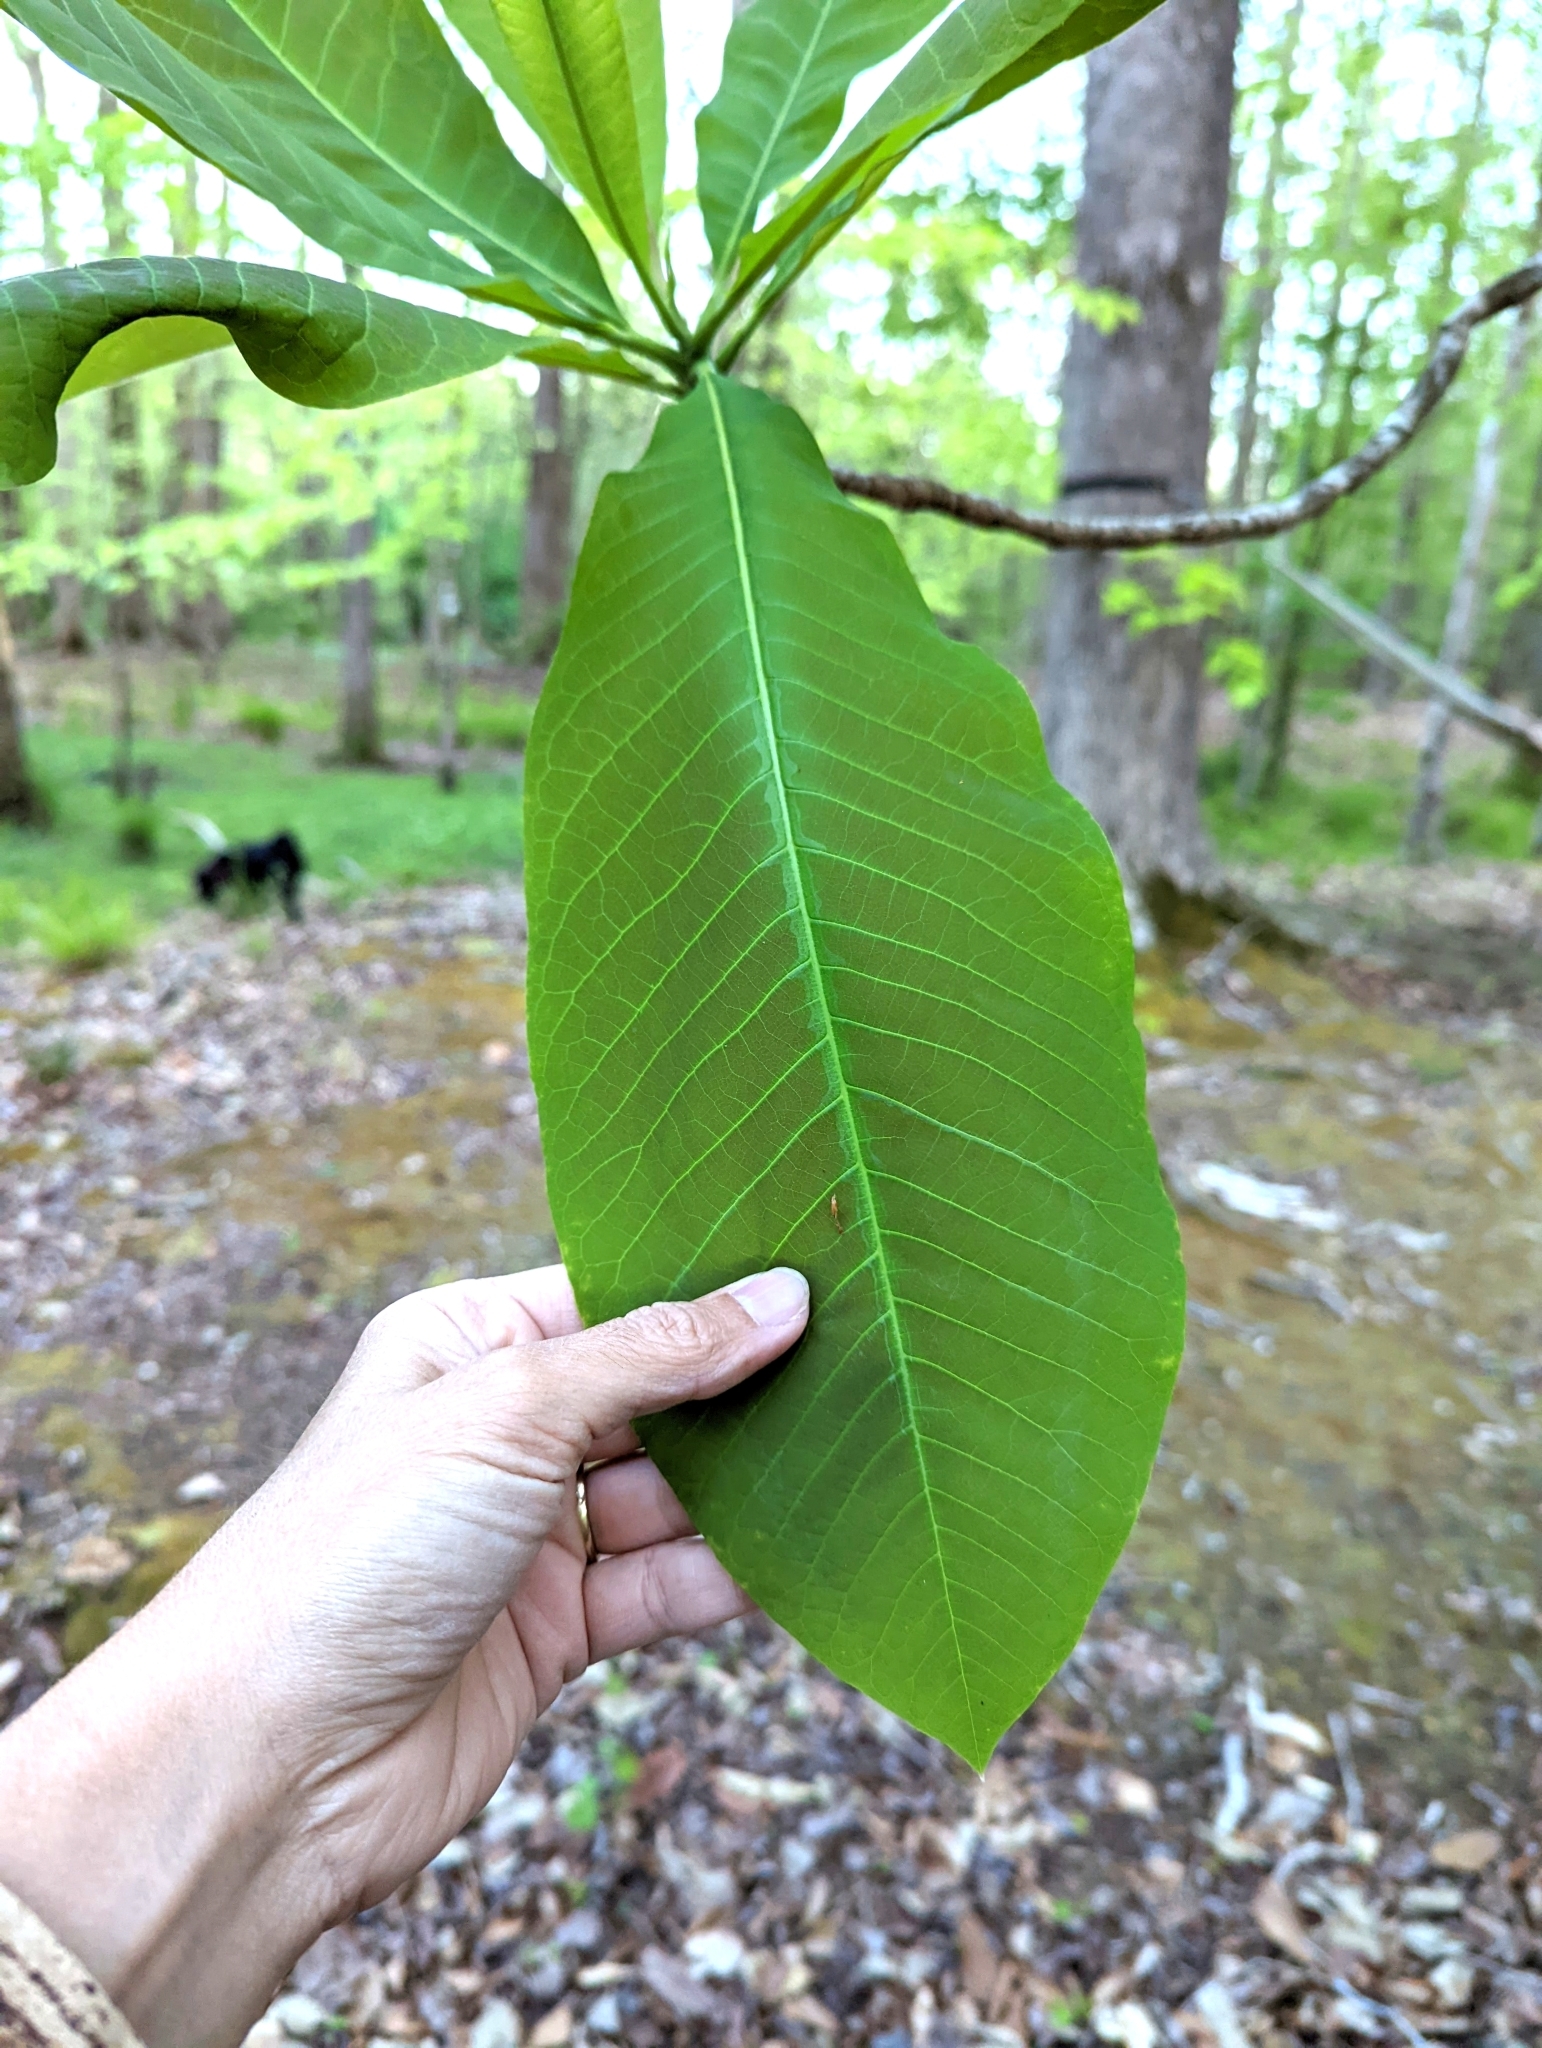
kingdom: Plantae
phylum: Tracheophyta
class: Magnoliopsida
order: Magnoliales
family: Magnoliaceae
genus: Magnolia
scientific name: Magnolia tripetala
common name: Umbrella magnolia
